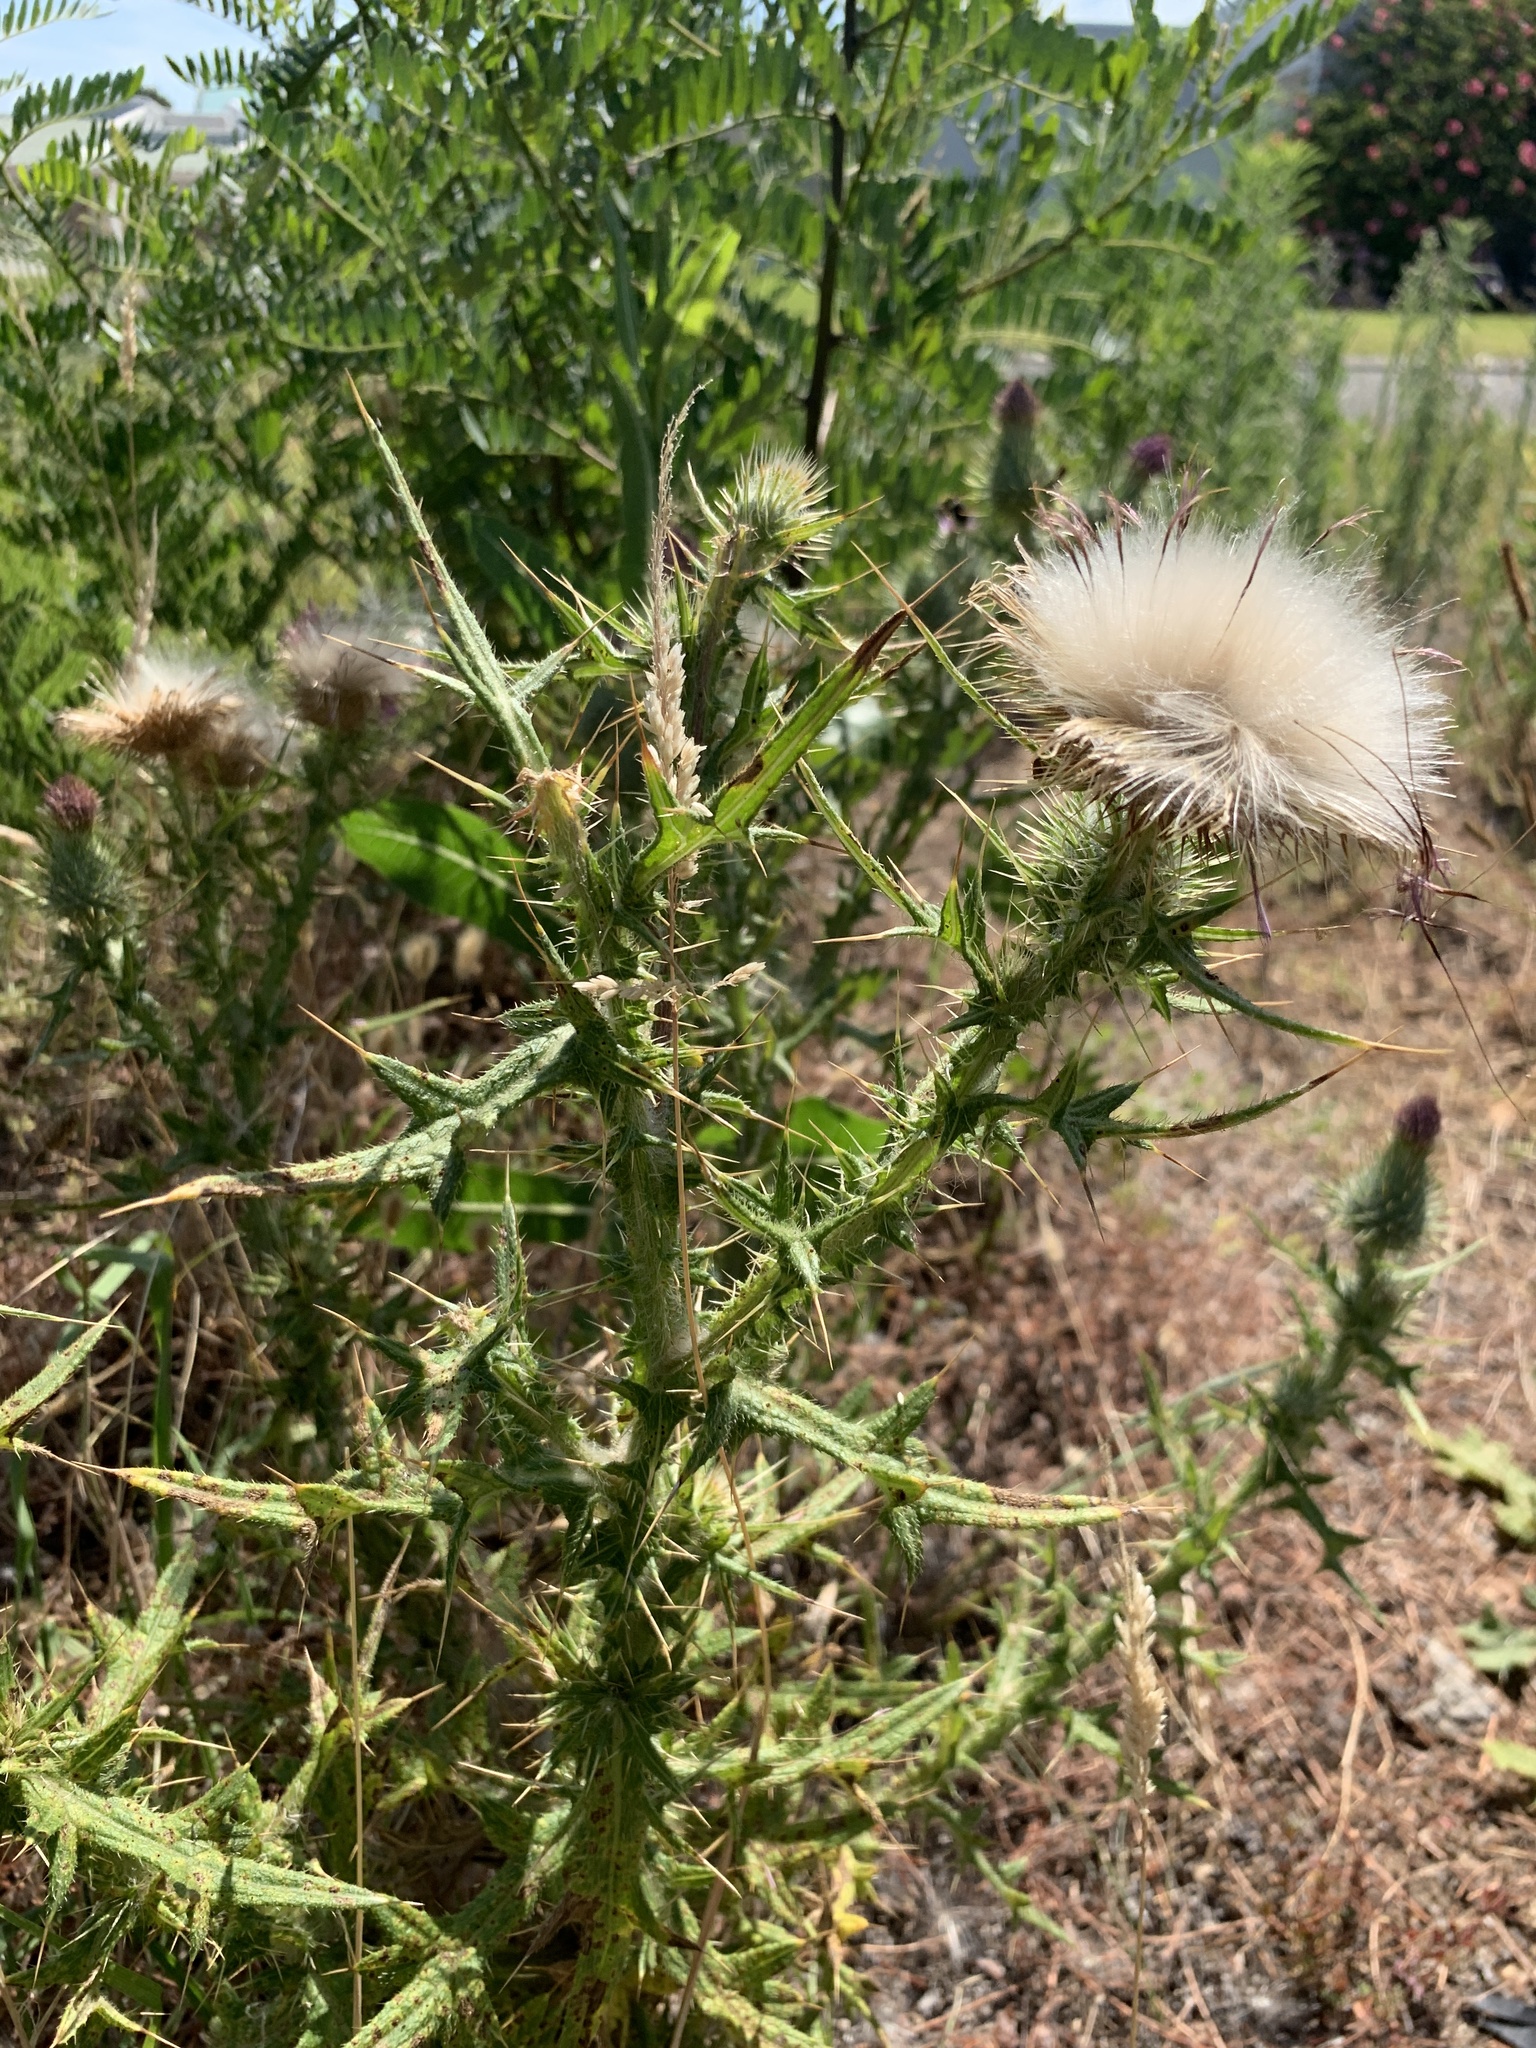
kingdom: Plantae
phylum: Tracheophyta
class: Magnoliopsida
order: Asterales
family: Asteraceae
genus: Cirsium
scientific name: Cirsium vulgare
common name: Bull thistle
